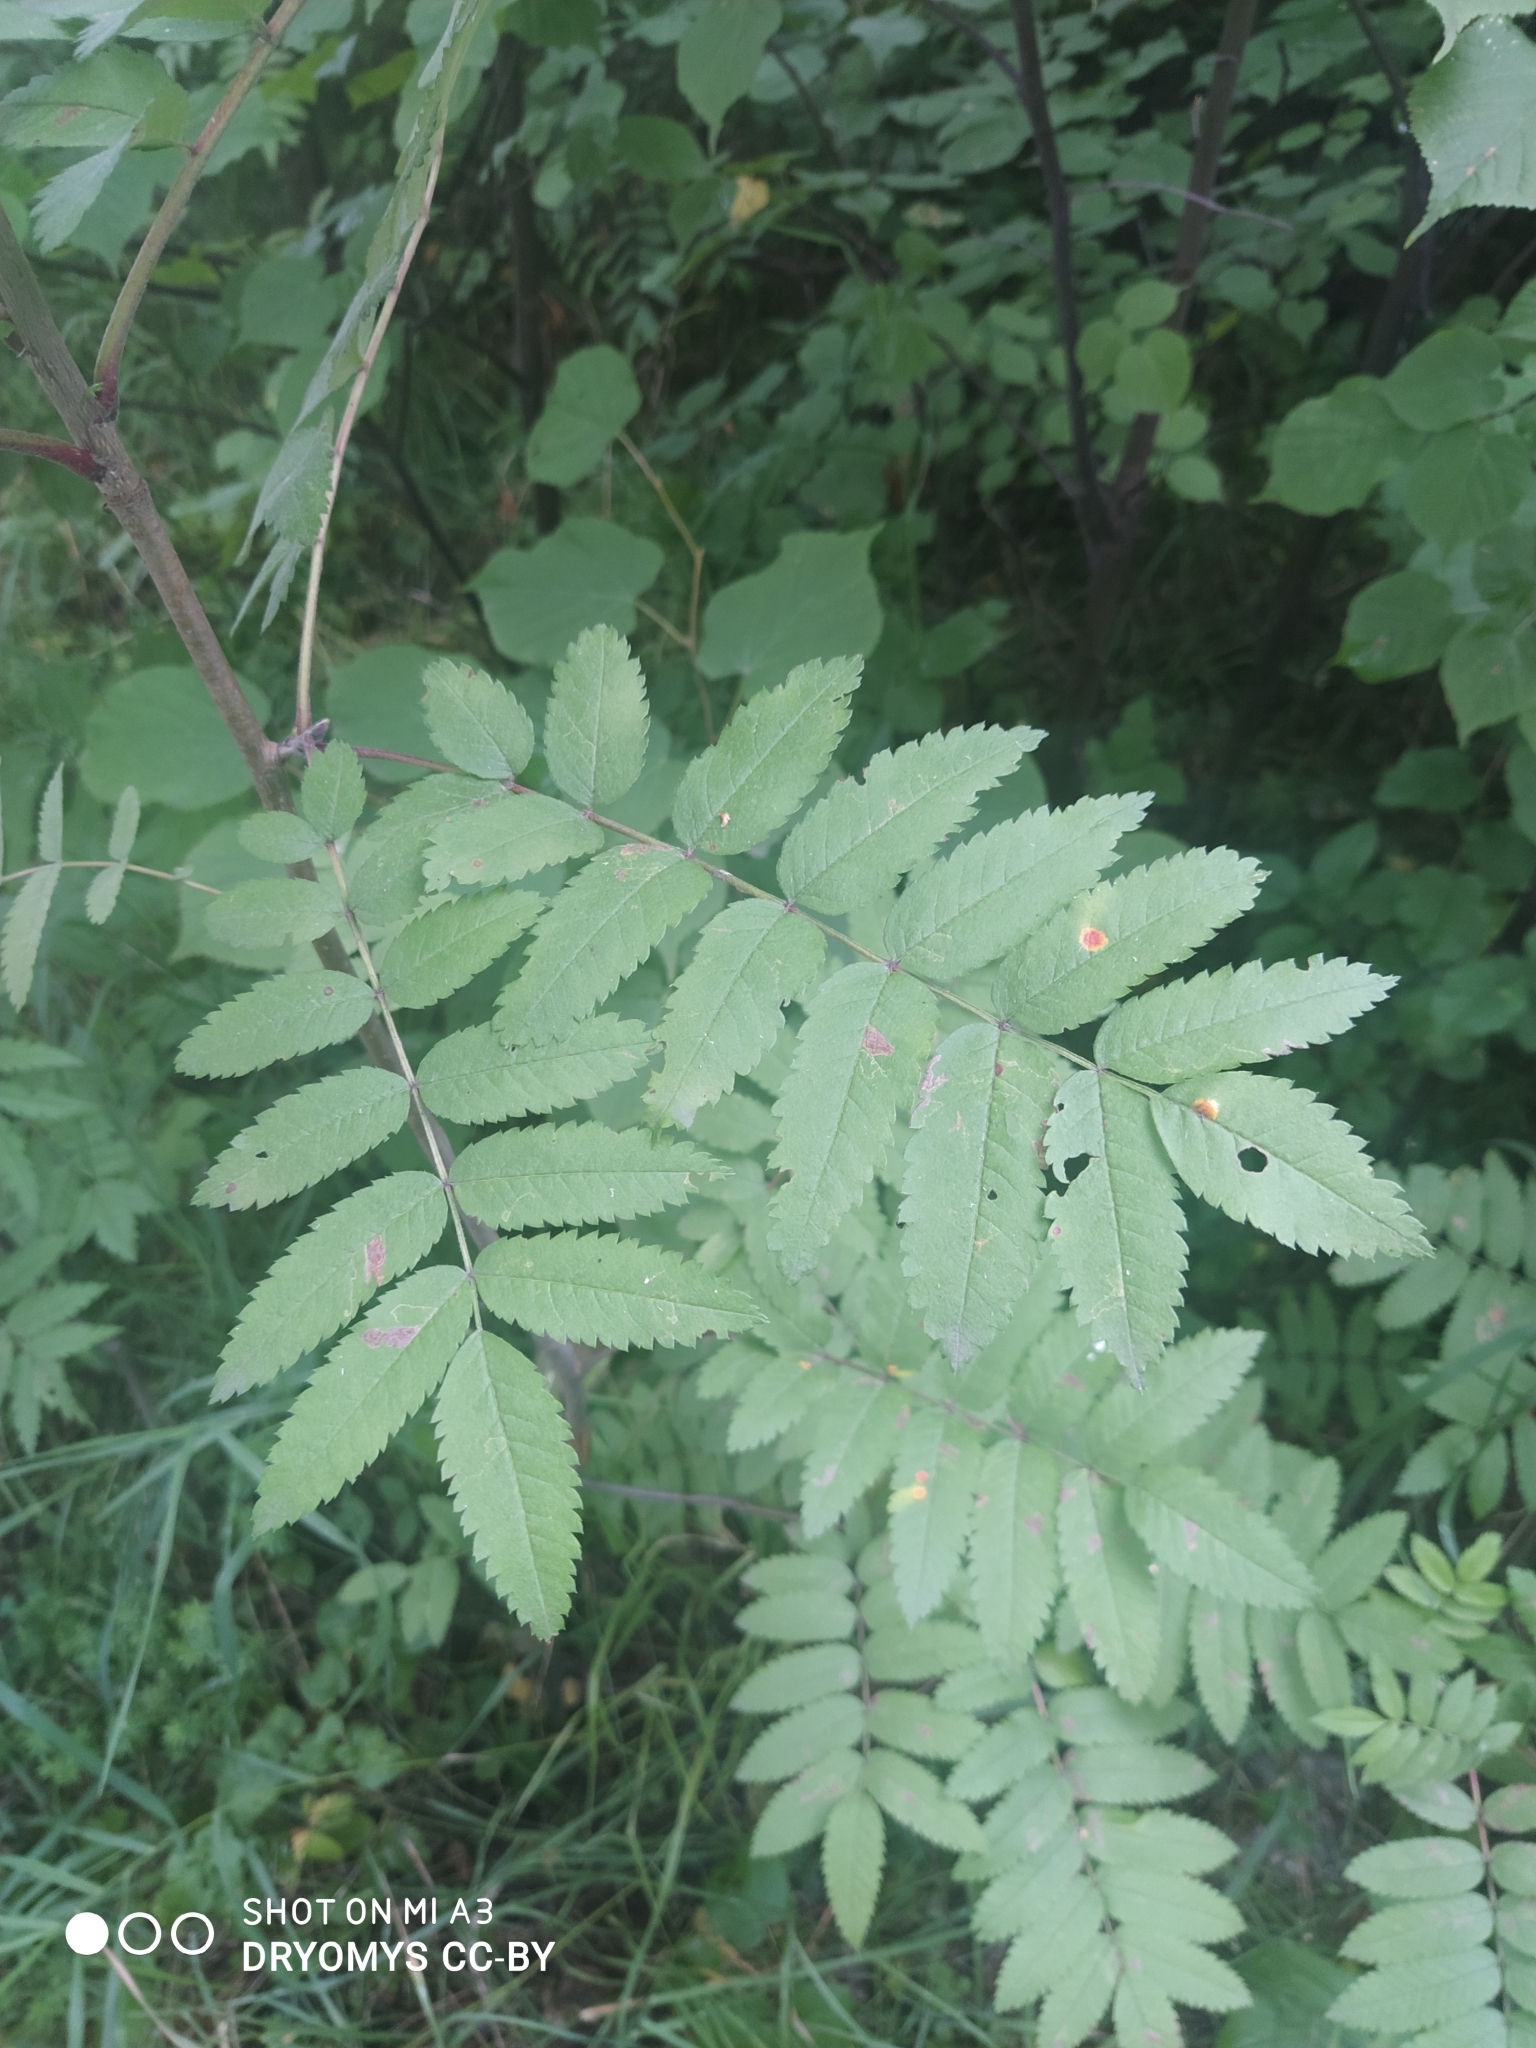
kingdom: Plantae
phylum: Tracheophyta
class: Magnoliopsida
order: Rosales
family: Rosaceae
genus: Sorbus
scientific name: Sorbus aucuparia
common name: Rowan
